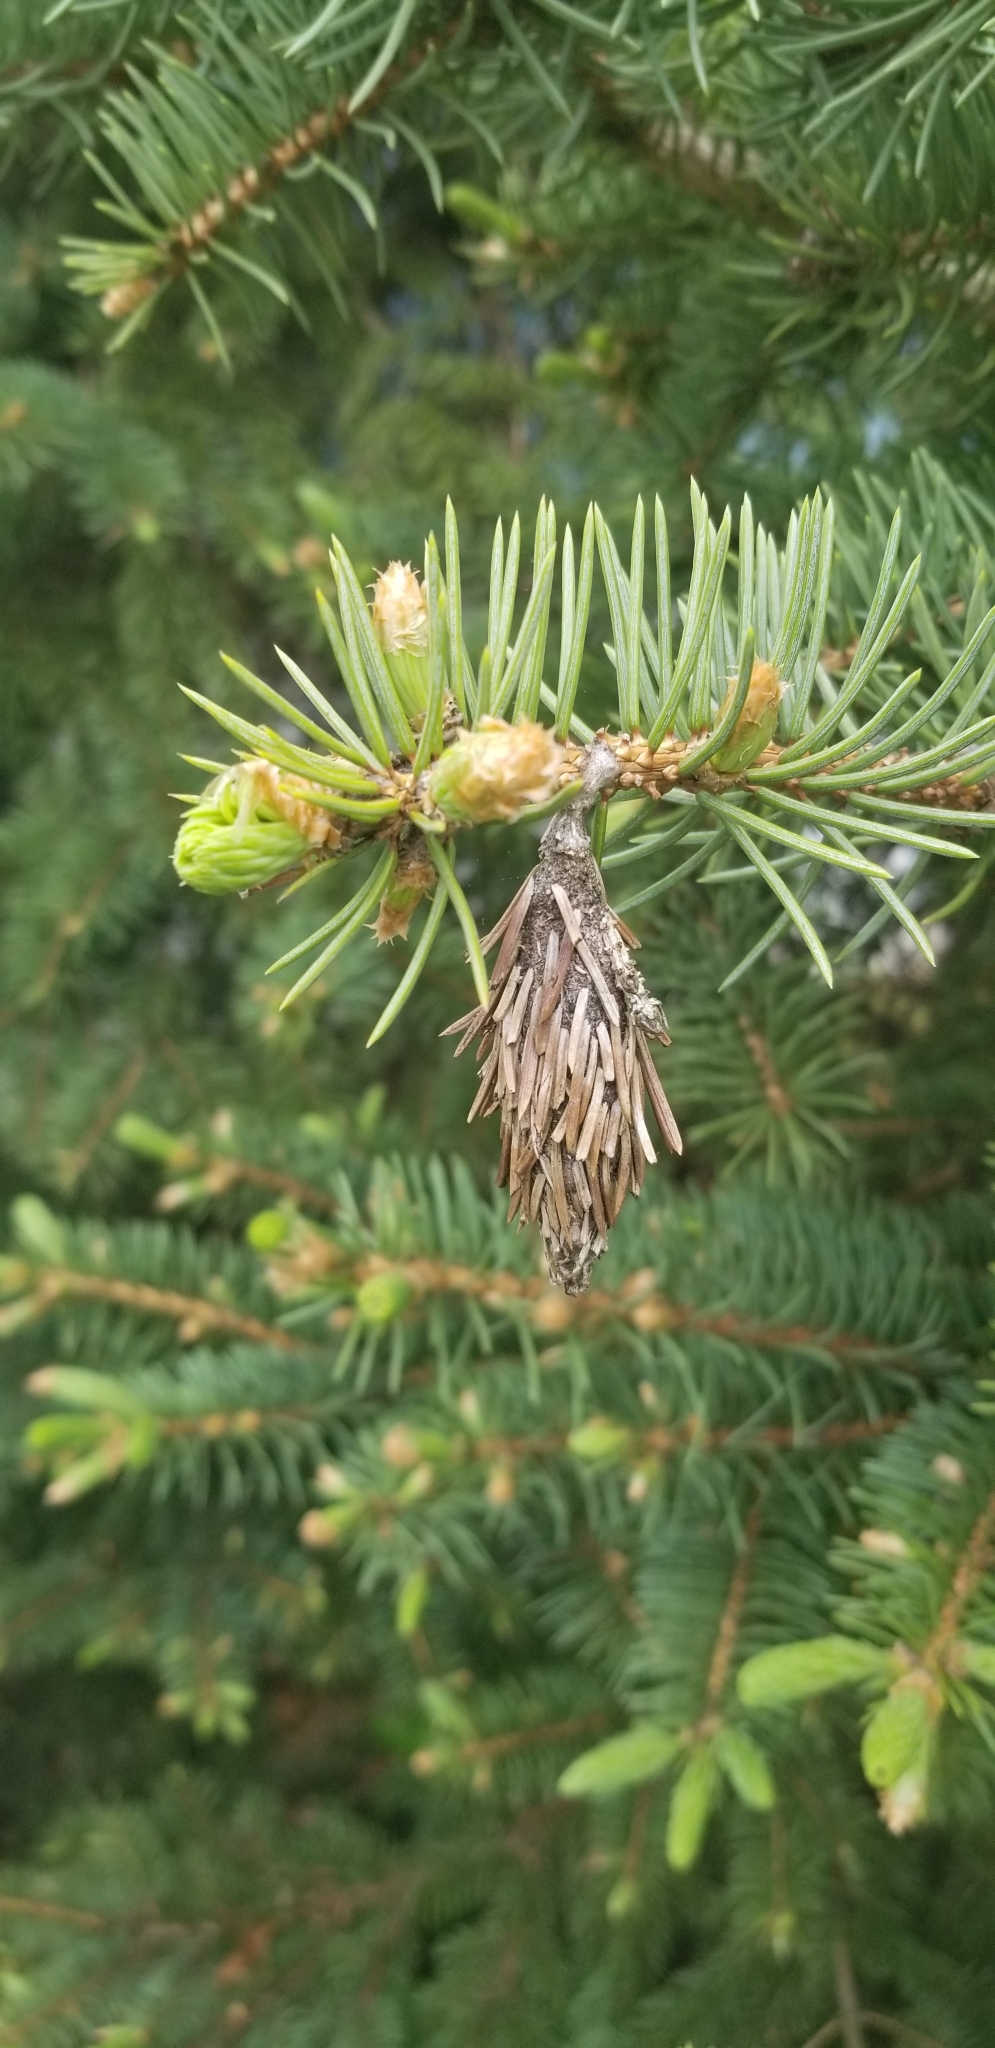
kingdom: Animalia
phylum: Arthropoda
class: Insecta
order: Lepidoptera
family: Psychidae
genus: Thyridopteryx
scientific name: Thyridopteryx ephemeraeformis
